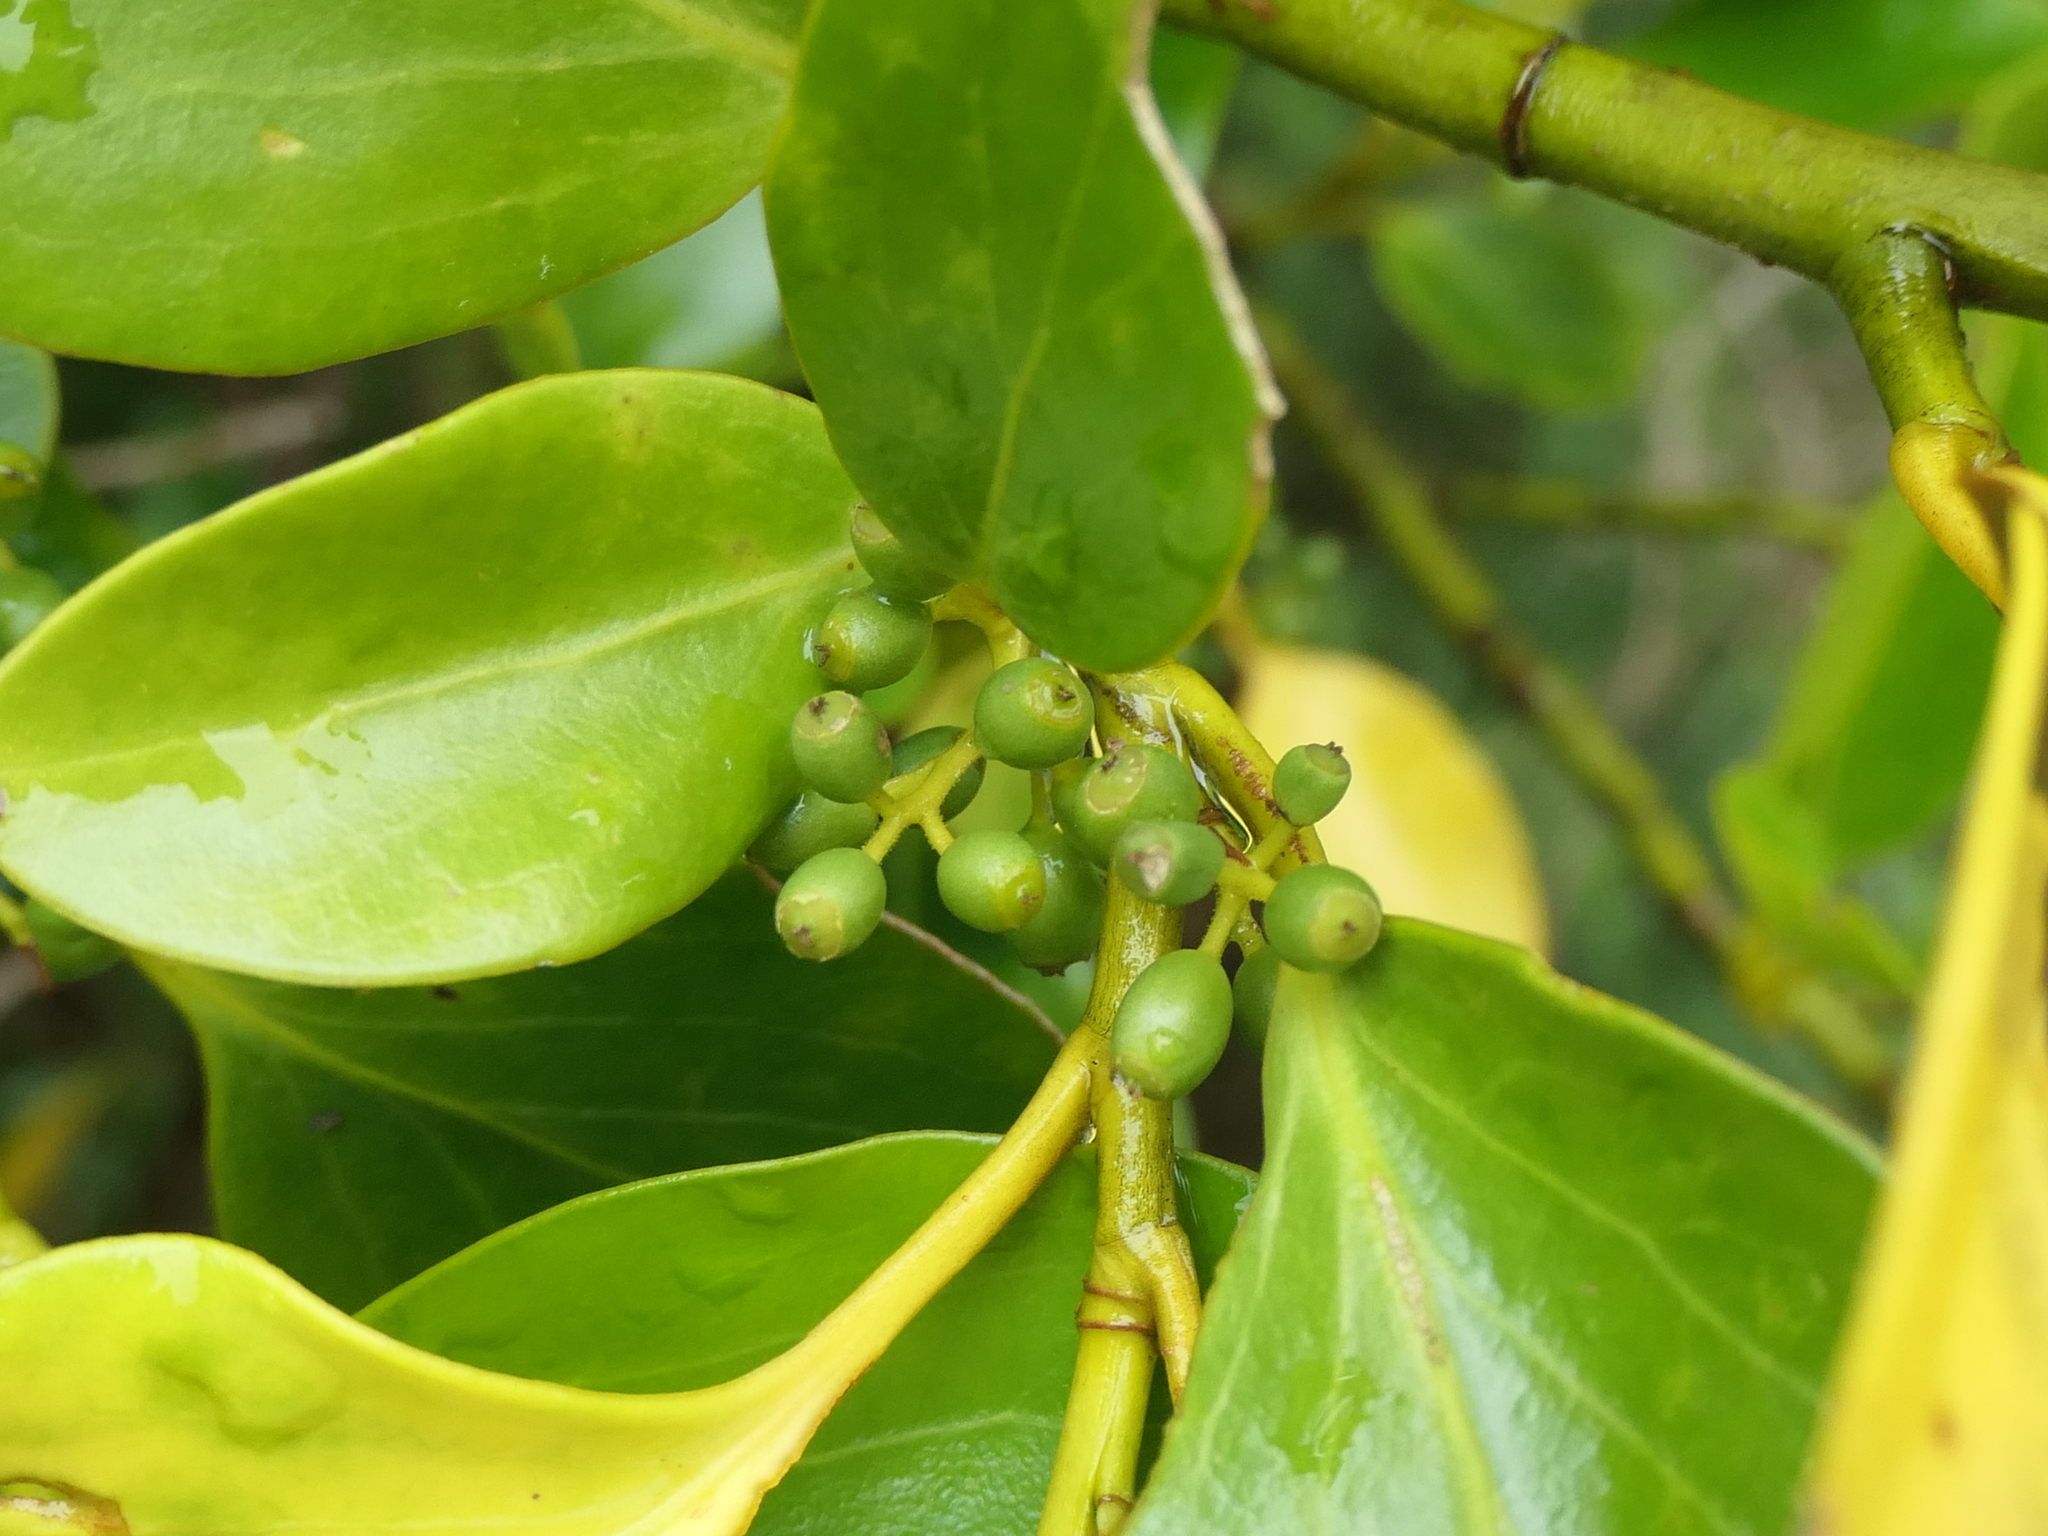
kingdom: Plantae
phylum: Tracheophyta
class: Magnoliopsida
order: Apiales
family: Griseliniaceae
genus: Griselinia
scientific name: Griselinia littoralis
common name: New zealand broadleaf
